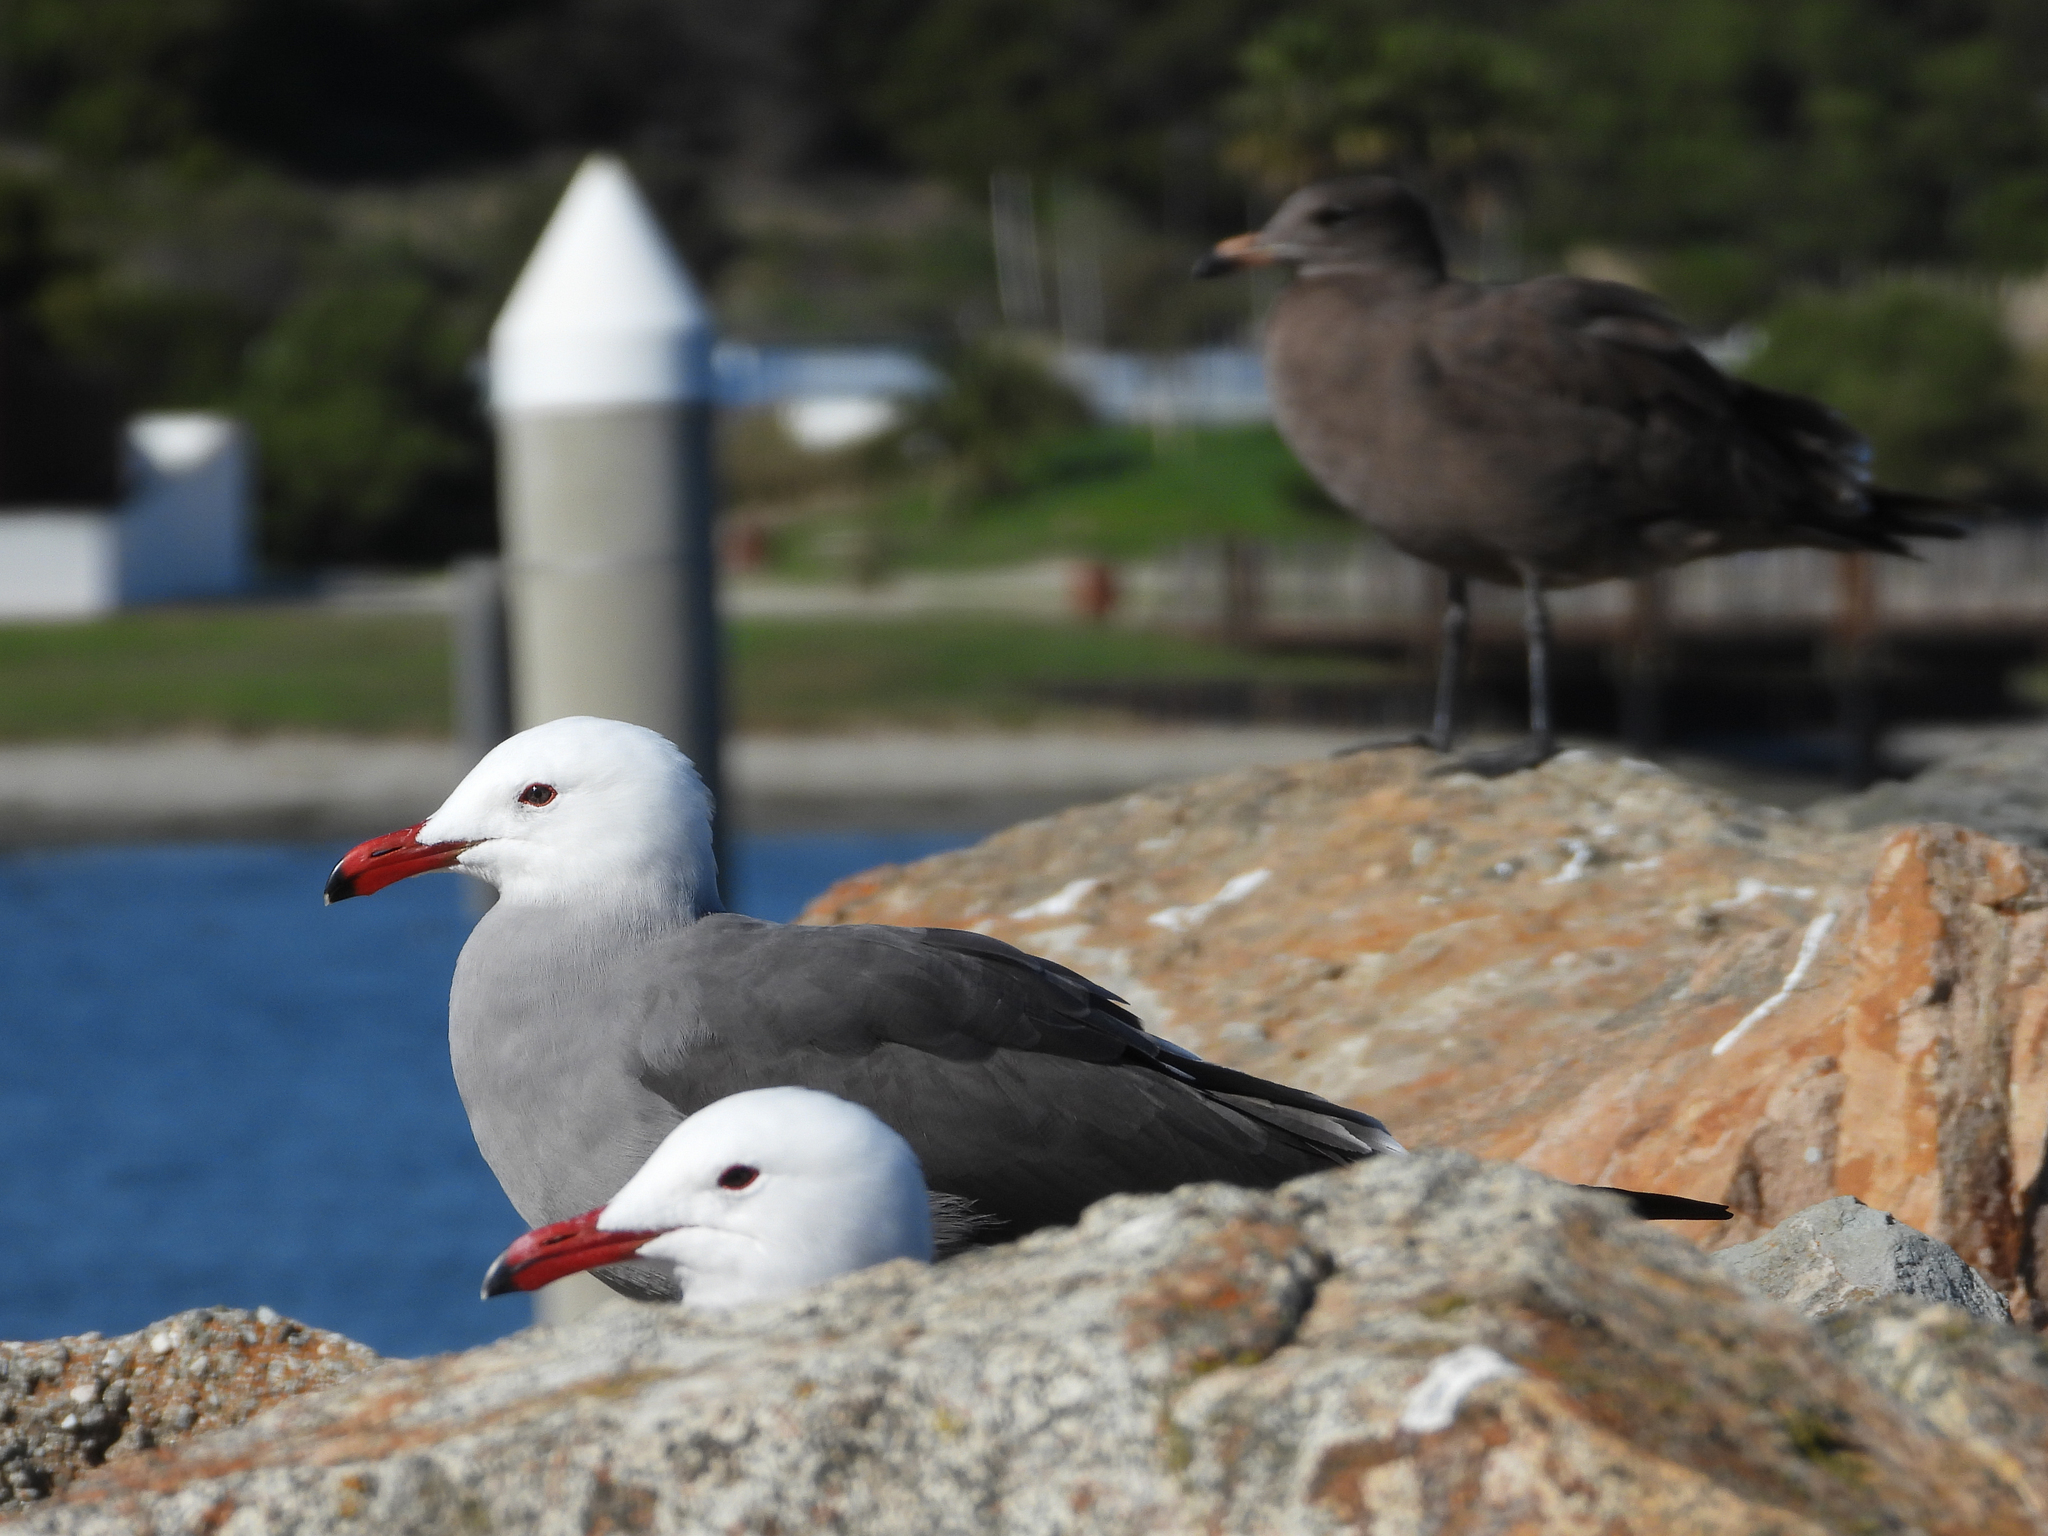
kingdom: Animalia
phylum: Chordata
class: Aves
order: Charadriiformes
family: Laridae
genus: Larus
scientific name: Larus heermanni
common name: Heermann's gull
